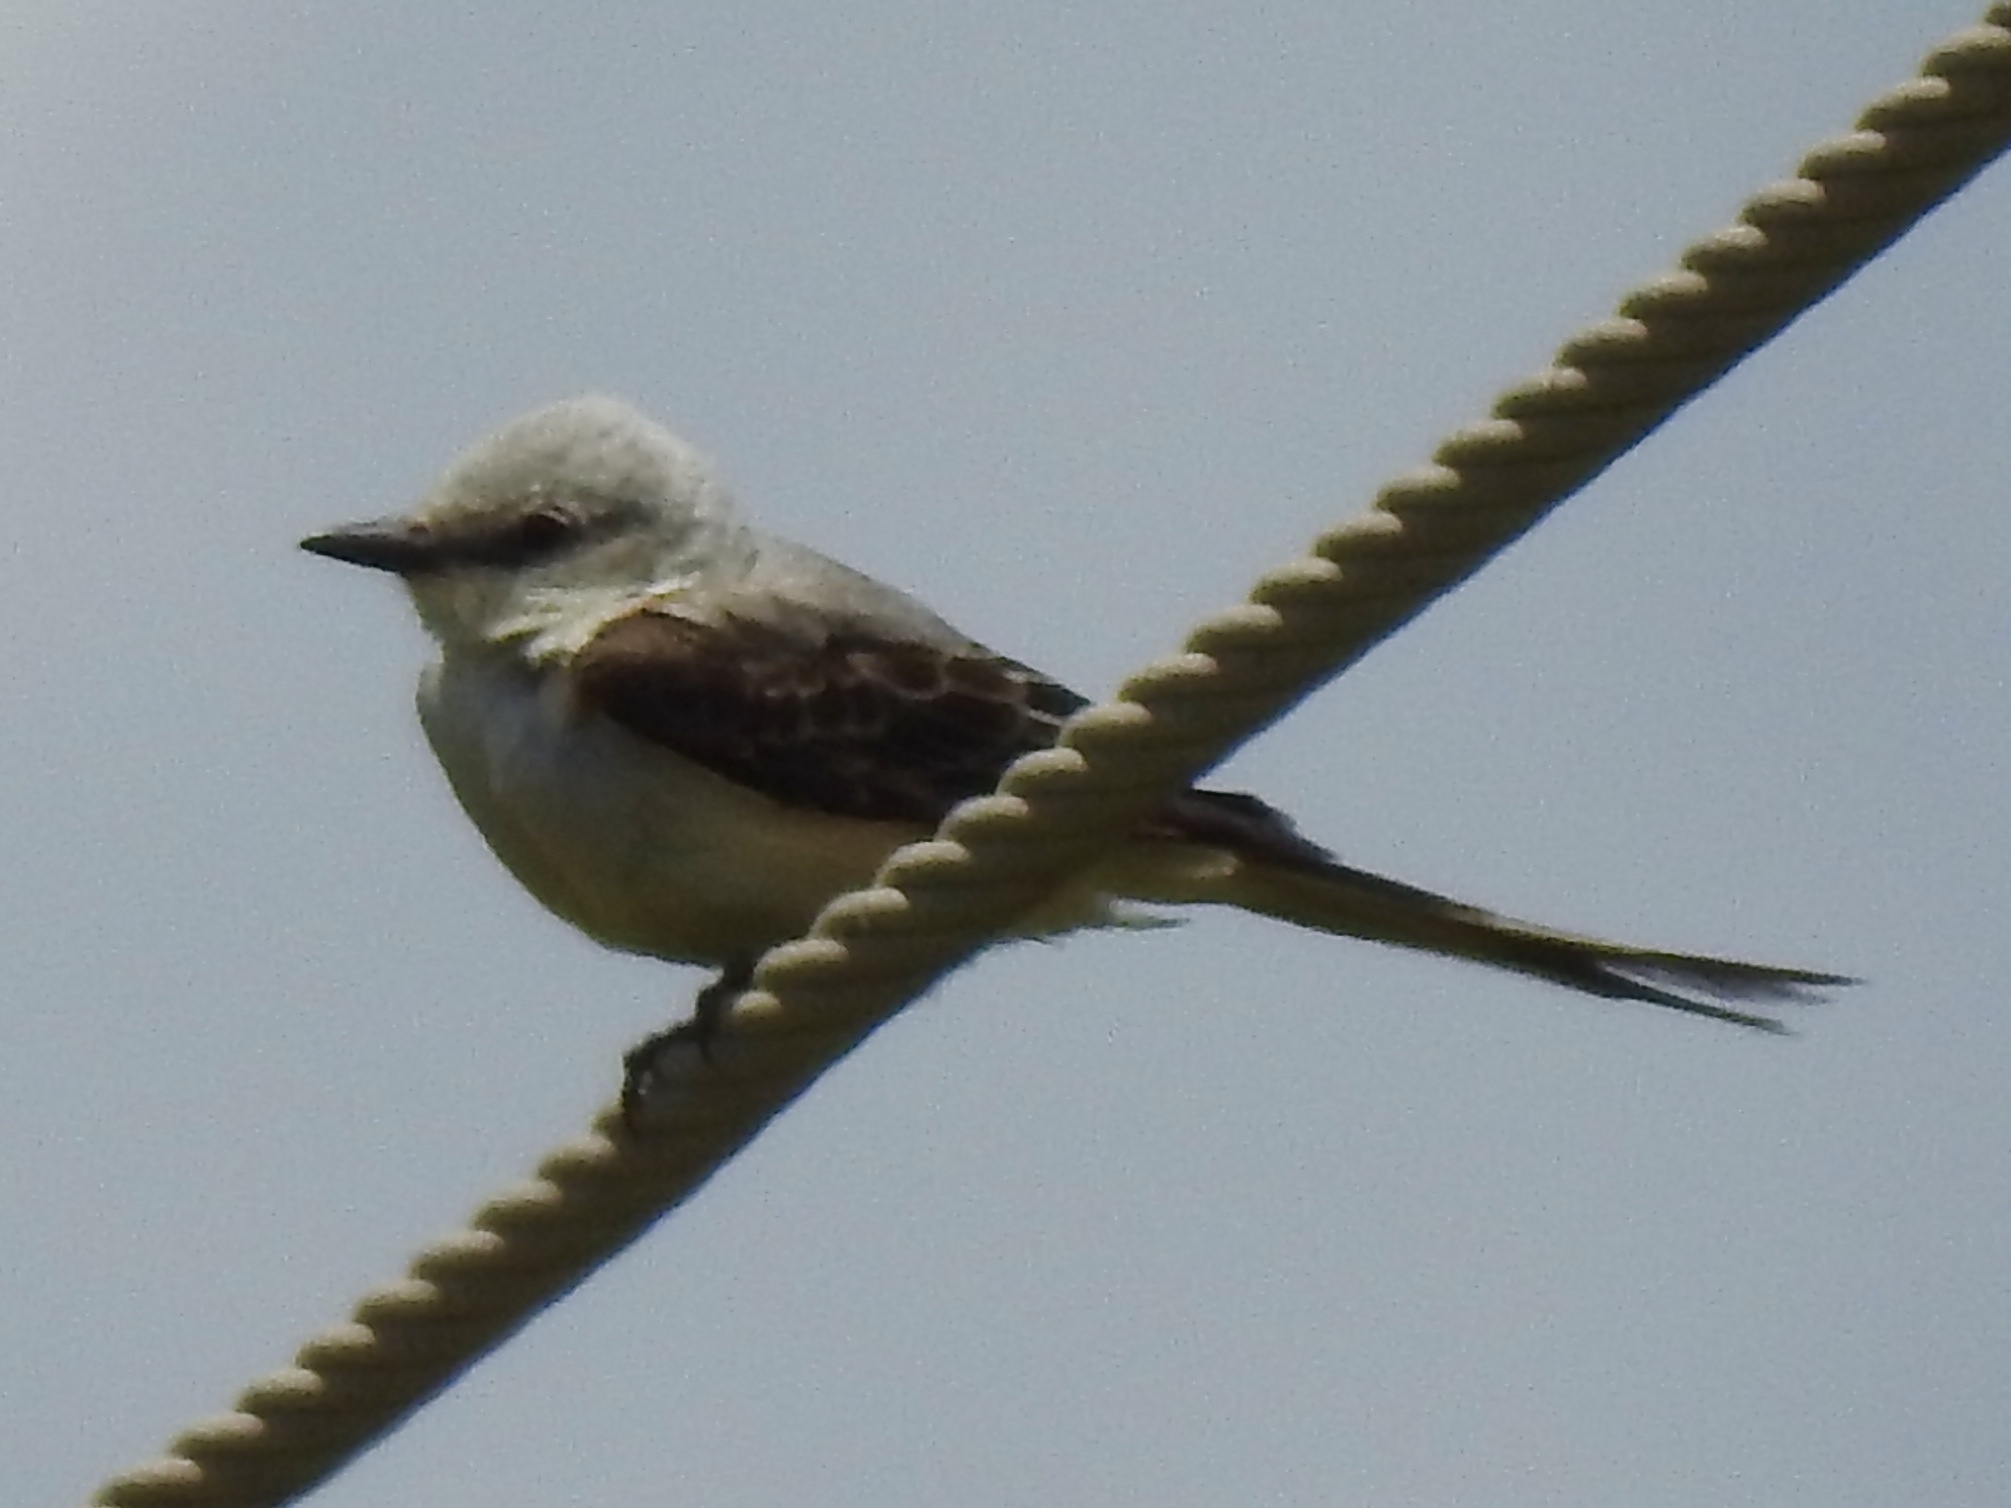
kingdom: Animalia
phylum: Chordata
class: Aves
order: Passeriformes
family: Tyrannidae
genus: Tyrannus
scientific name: Tyrannus forficatus
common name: Scissor-tailed flycatcher
